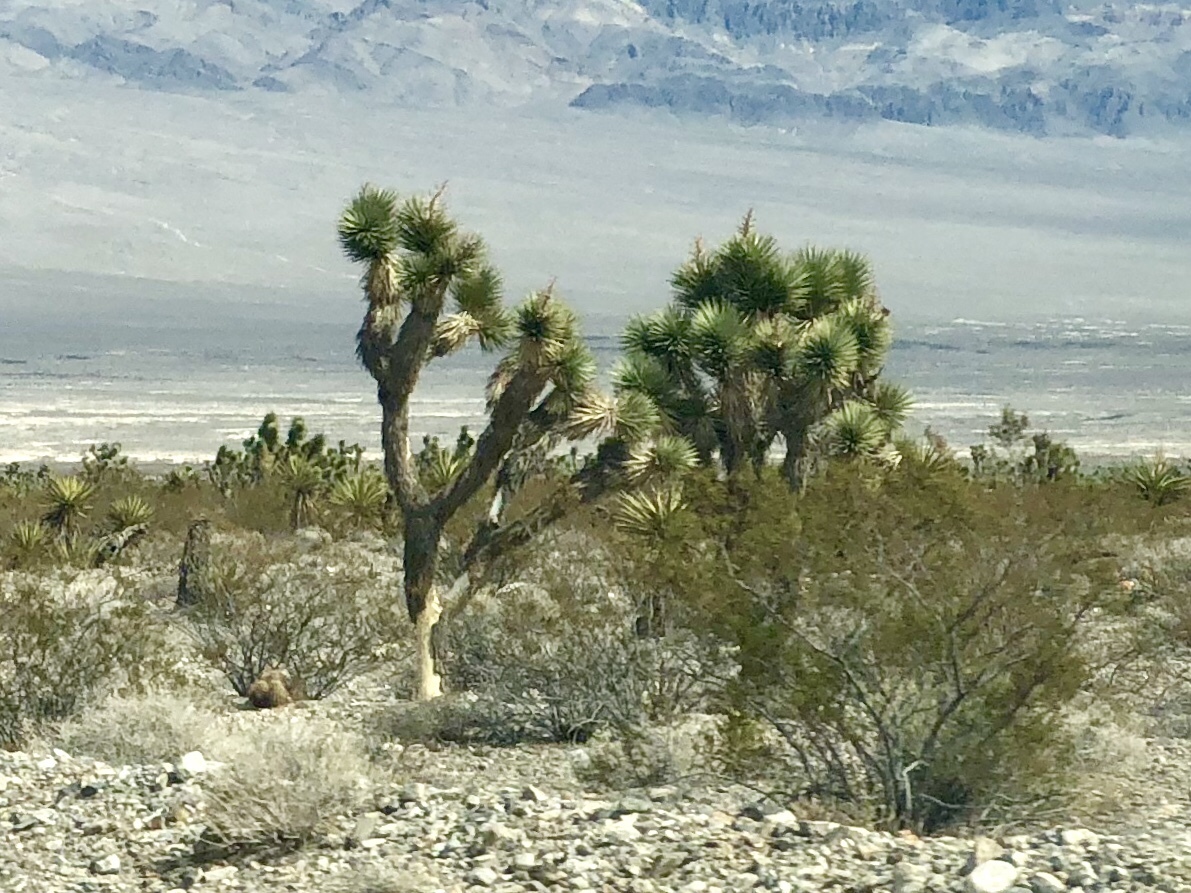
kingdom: Plantae
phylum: Tracheophyta
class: Liliopsida
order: Asparagales
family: Asparagaceae
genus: Yucca
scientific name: Yucca brevifolia
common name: Joshua tree
